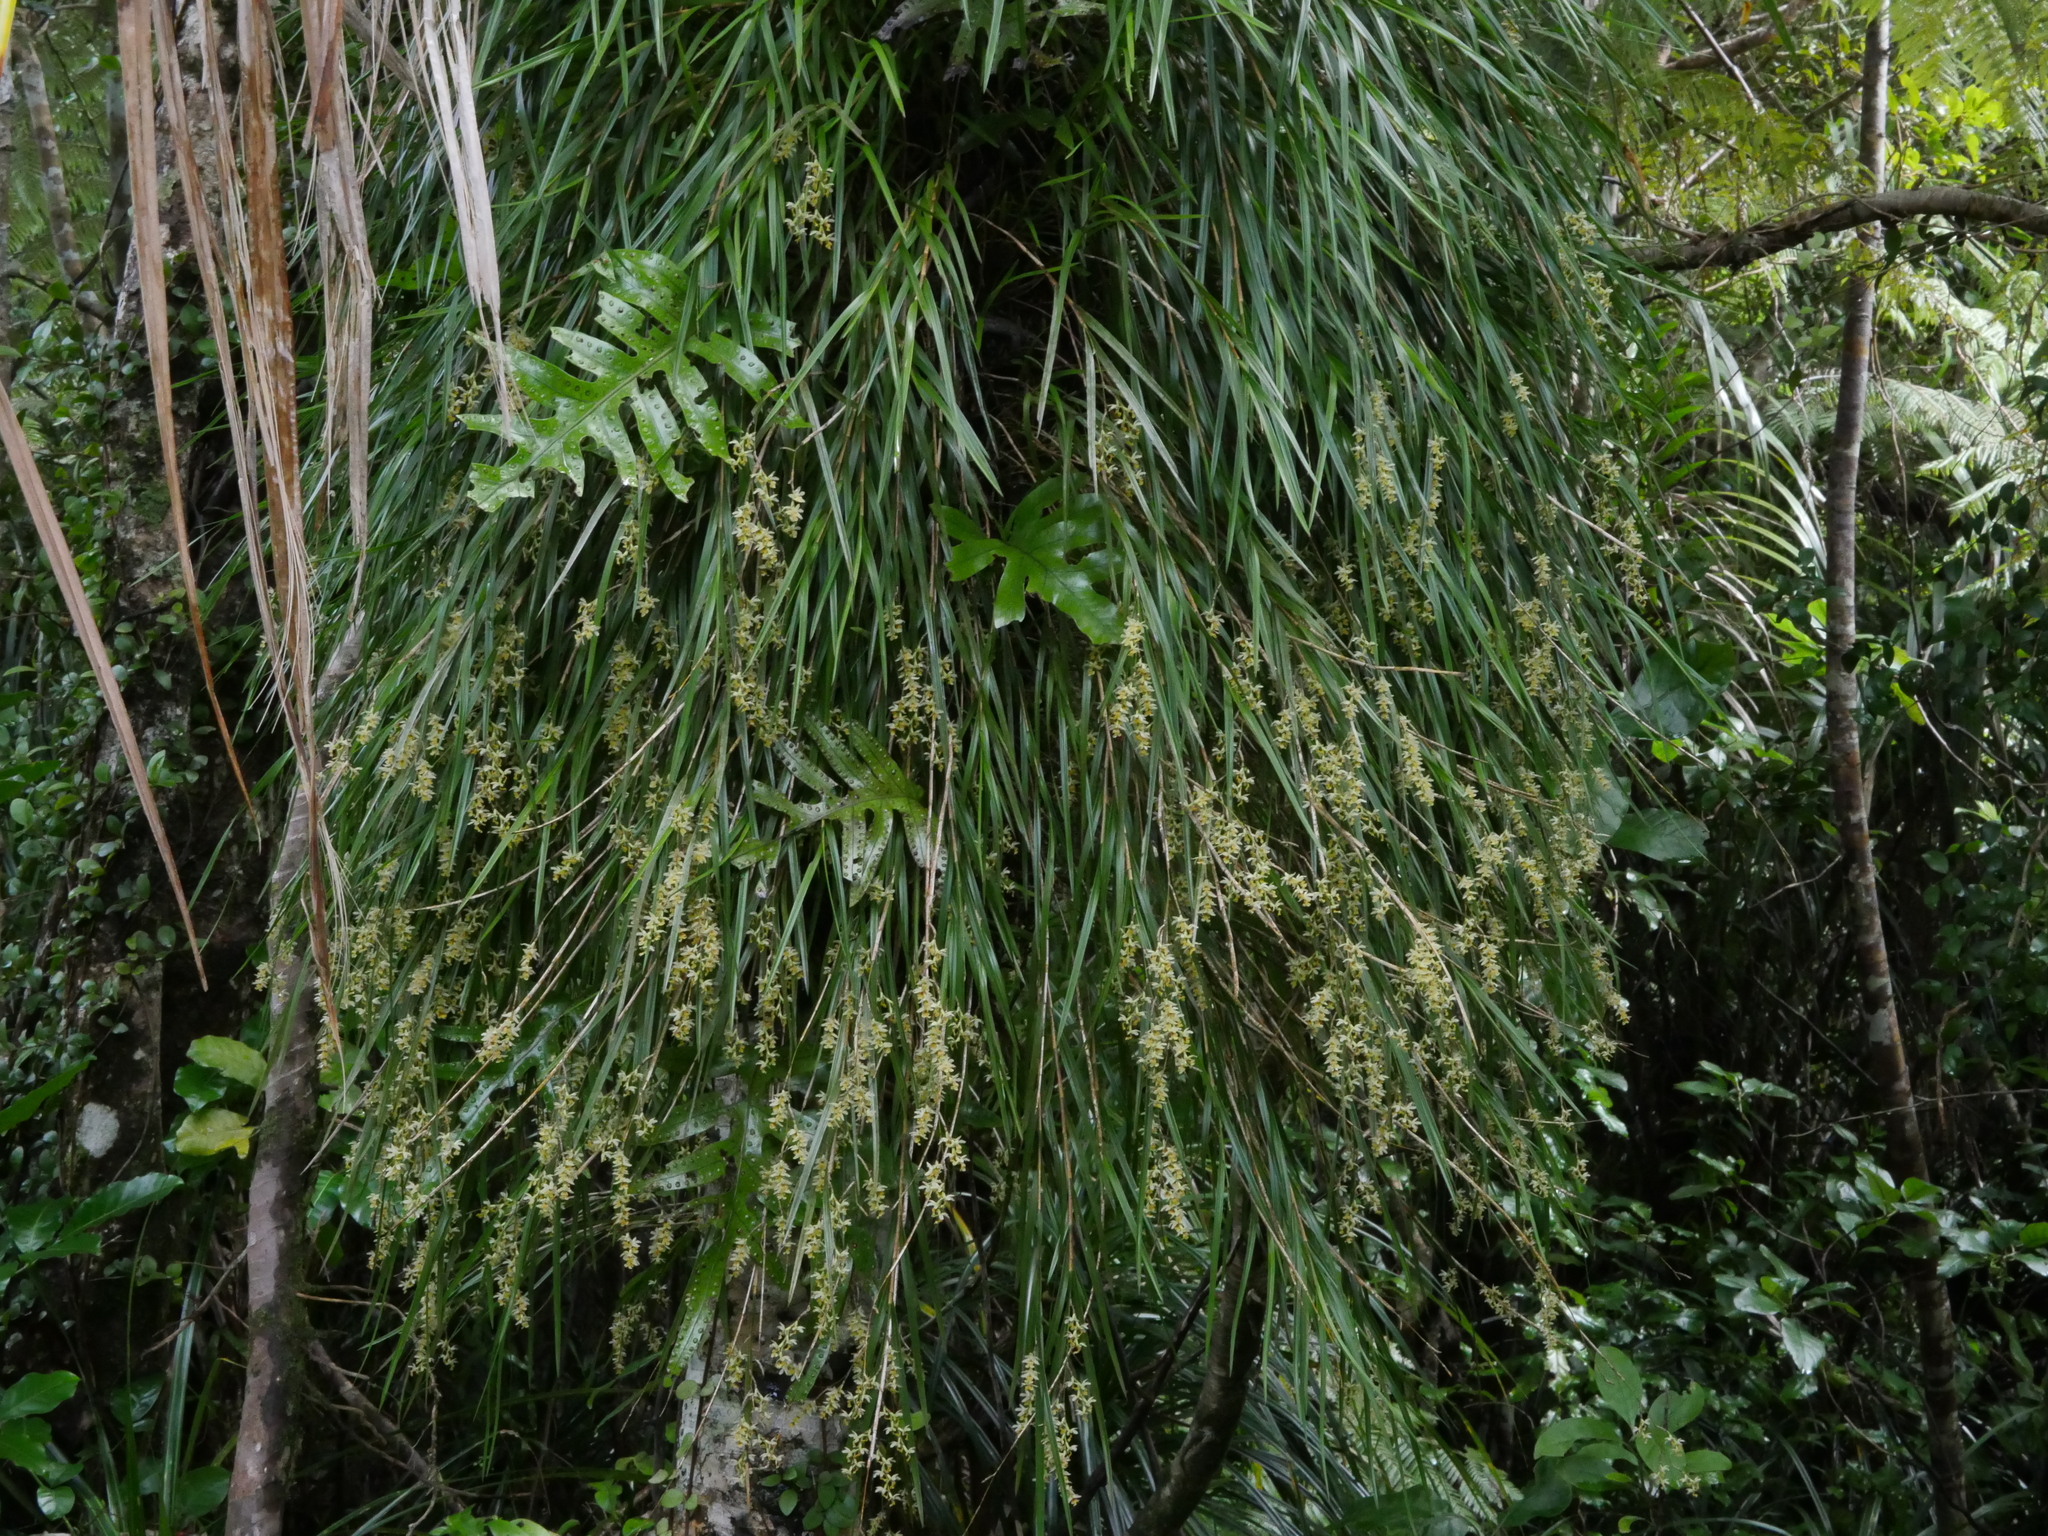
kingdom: Plantae
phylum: Tracheophyta
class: Liliopsida
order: Asparagales
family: Orchidaceae
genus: Earina
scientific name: Earina mucronata
